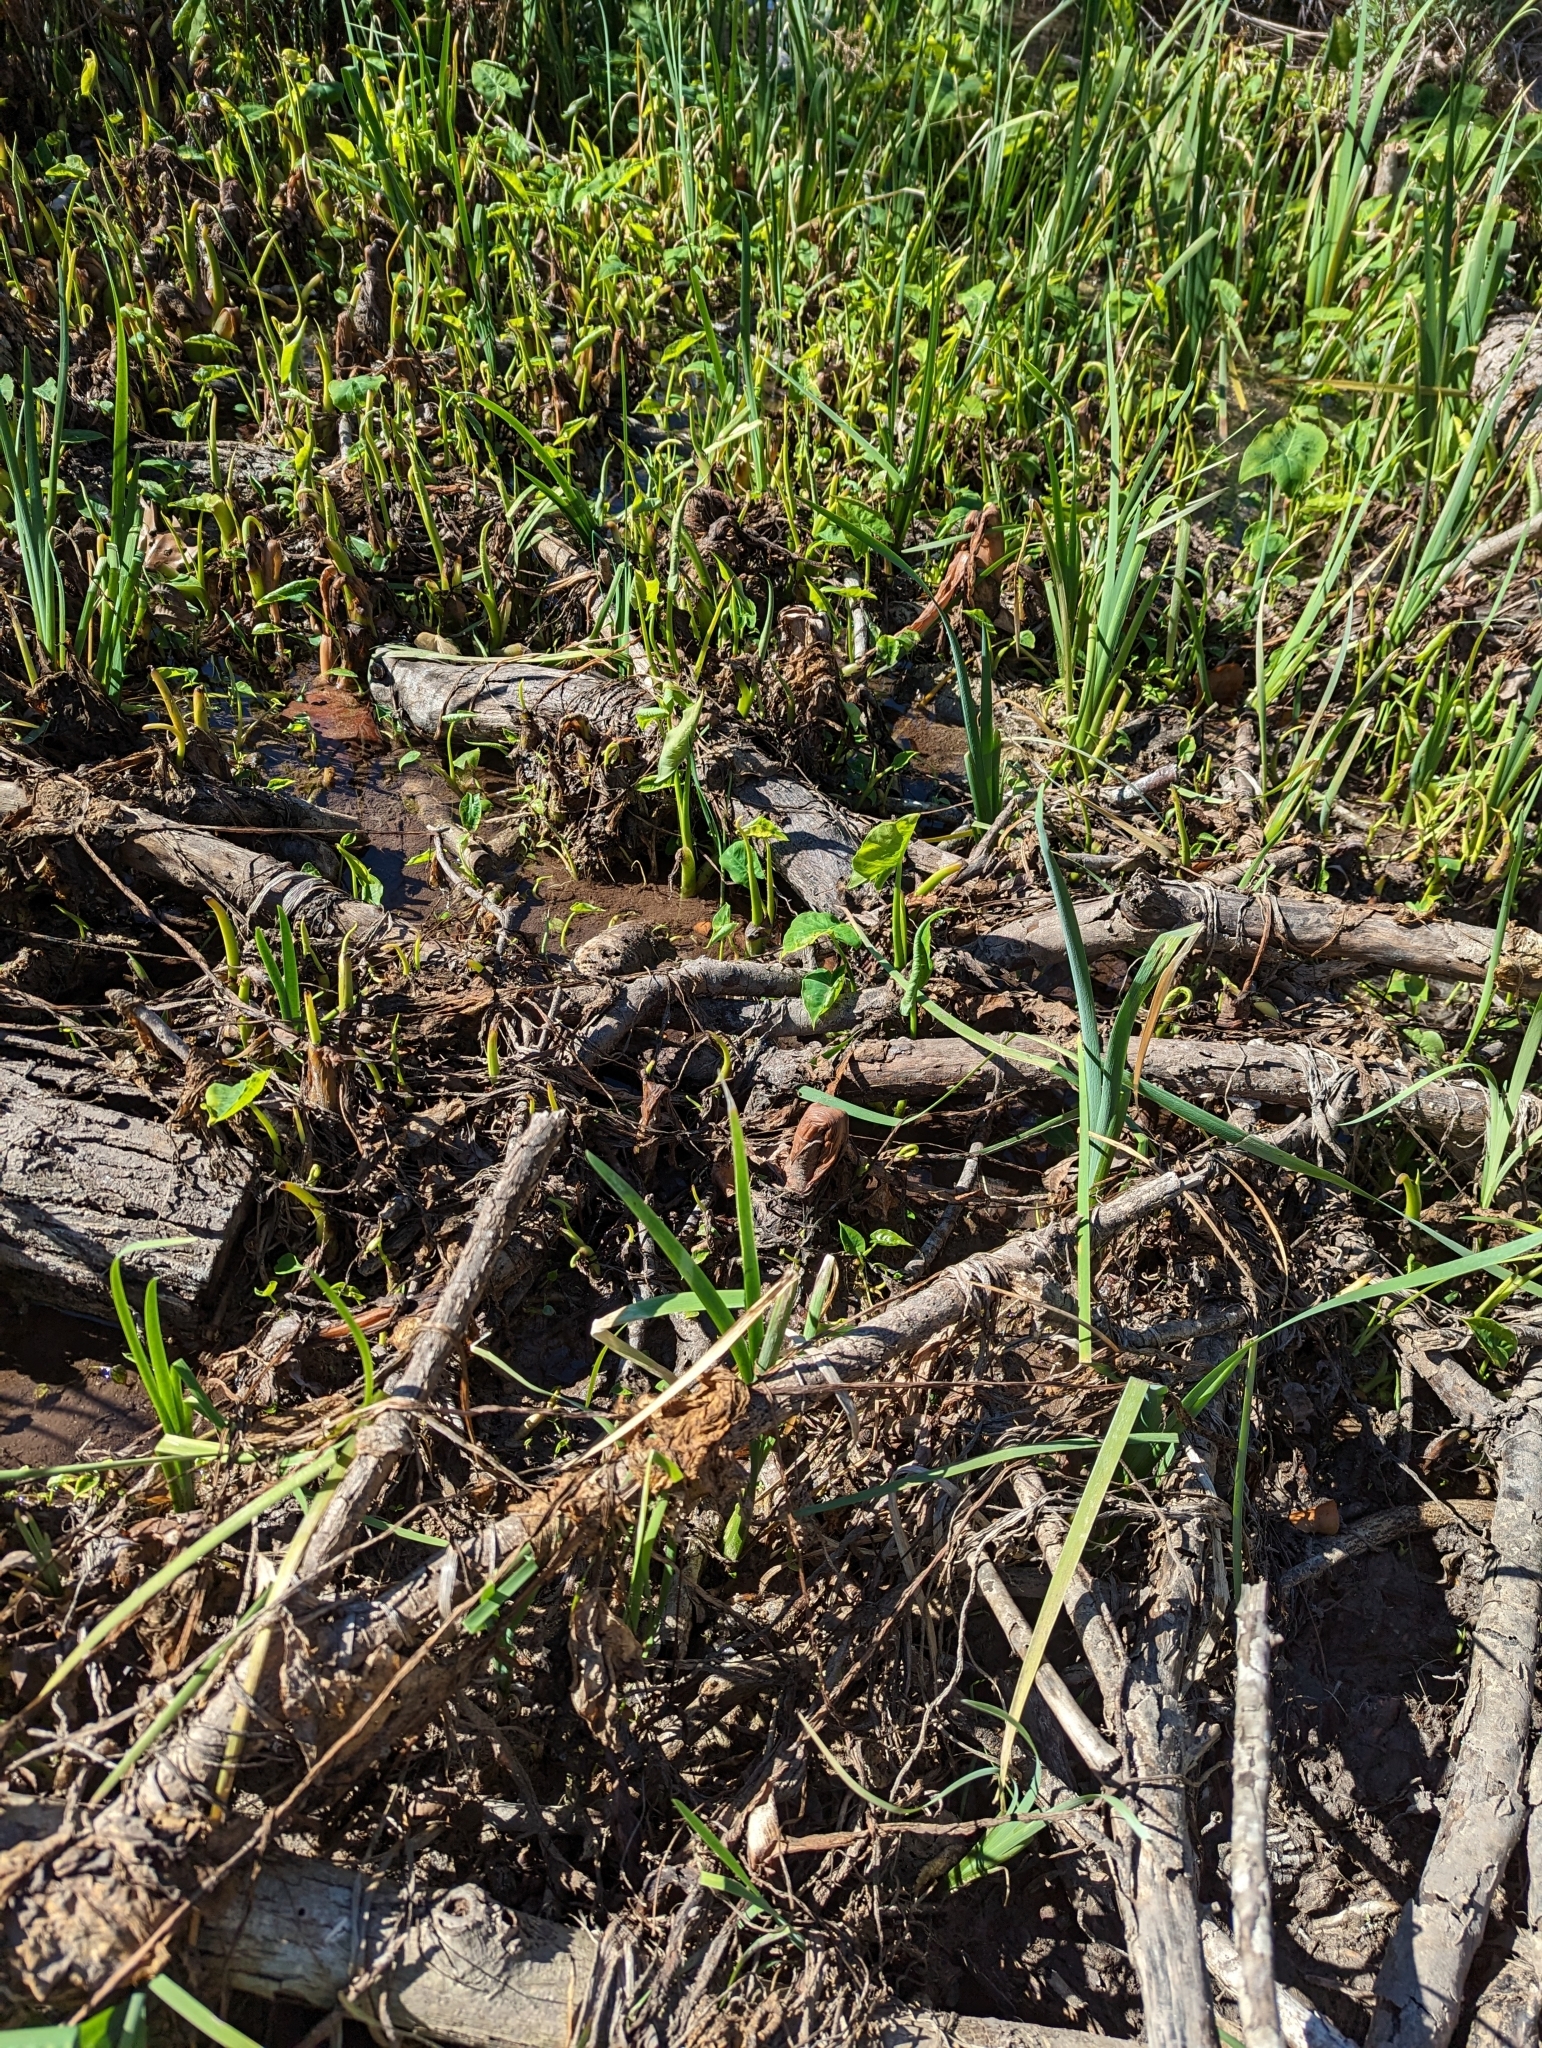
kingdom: Plantae
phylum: Tracheophyta
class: Liliopsida
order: Alismatales
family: Araceae
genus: Xanthosoma
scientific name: Xanthosoma sagittifolium
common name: Arrowleaf elephant's ear
